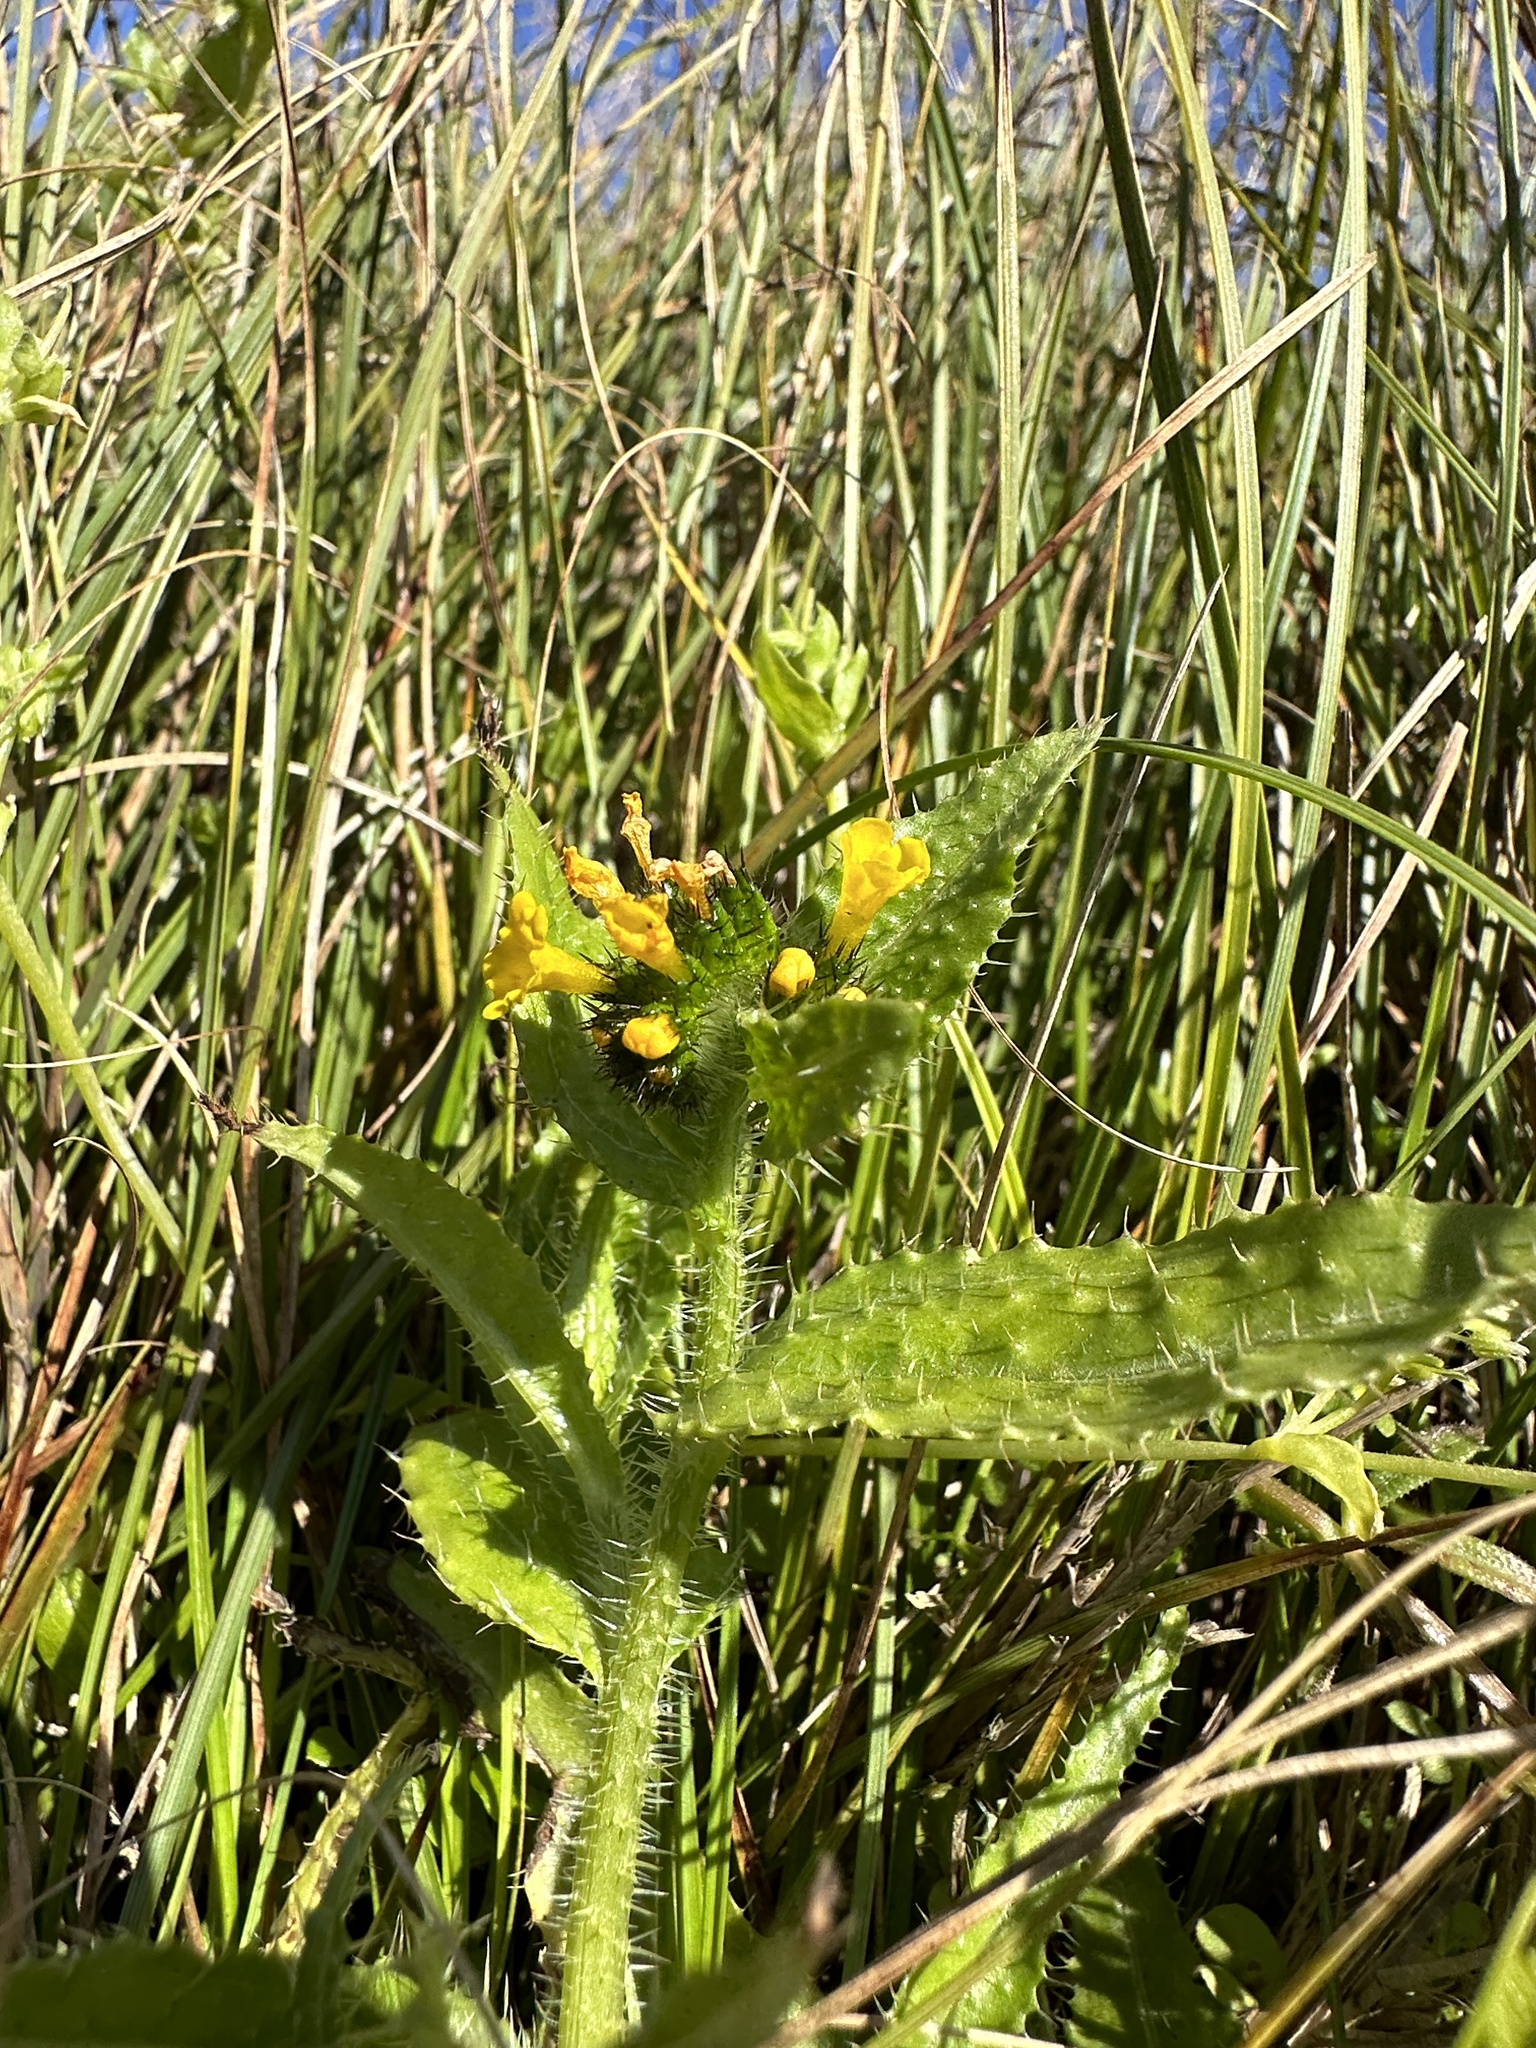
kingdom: Plantae
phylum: Tracheophyta
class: Magnoliopsida
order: Boraginales
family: Boraginaceae
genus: Amsinckia
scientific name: Amsinckia spectabilis
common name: Seaside fiddleneck
